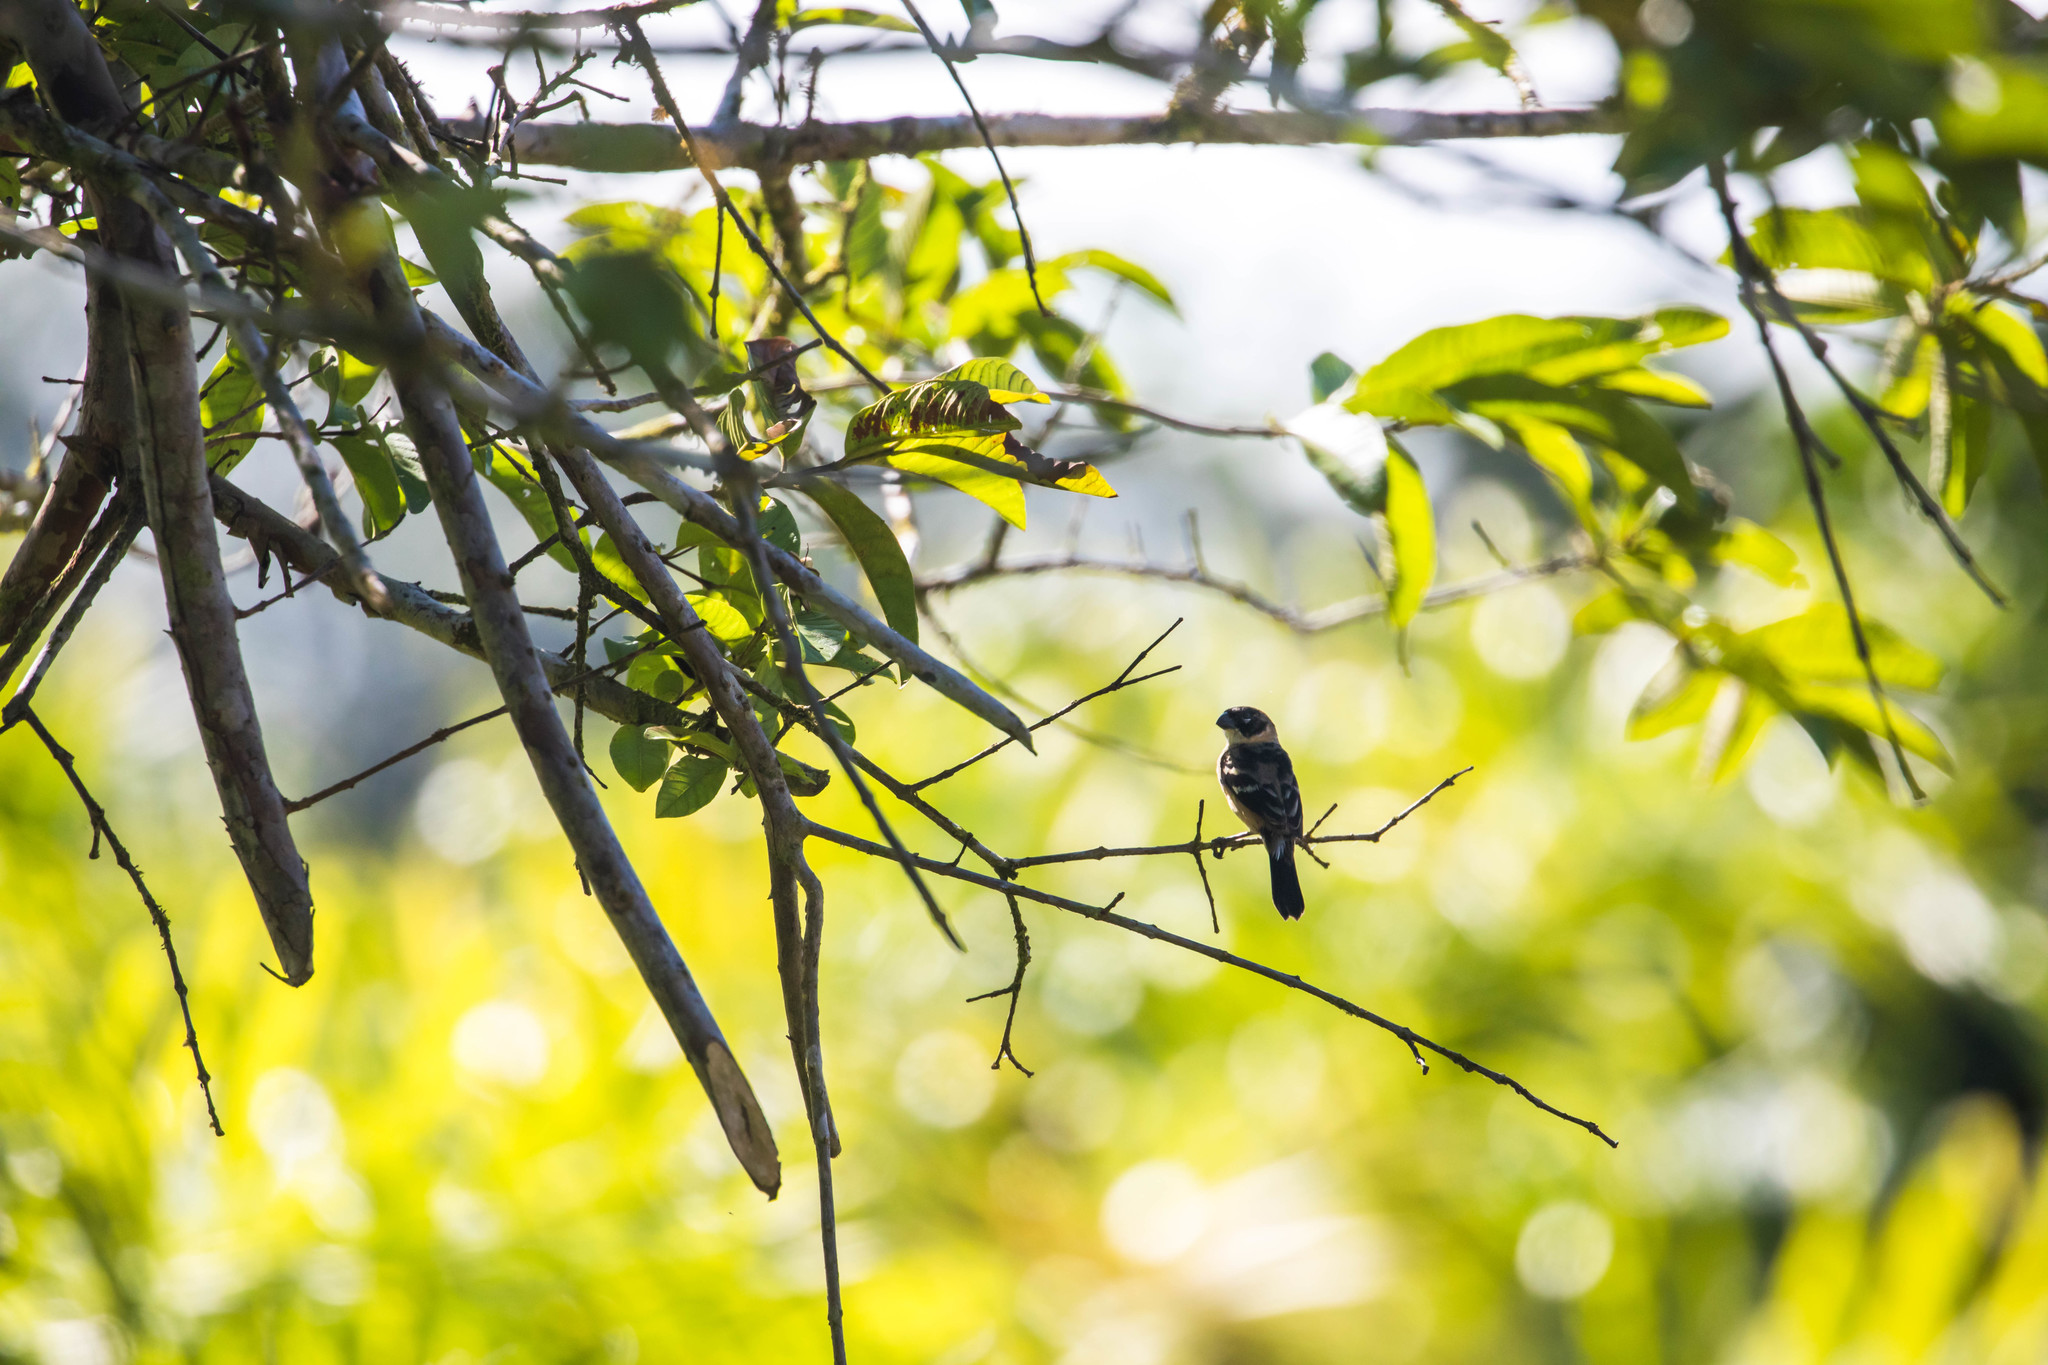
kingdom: Animalia
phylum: Chordata
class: Aves
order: Passeriformes
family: Thraupidae
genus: Sporophila
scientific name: Sporophila morelleti
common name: Morelet's seedeater
